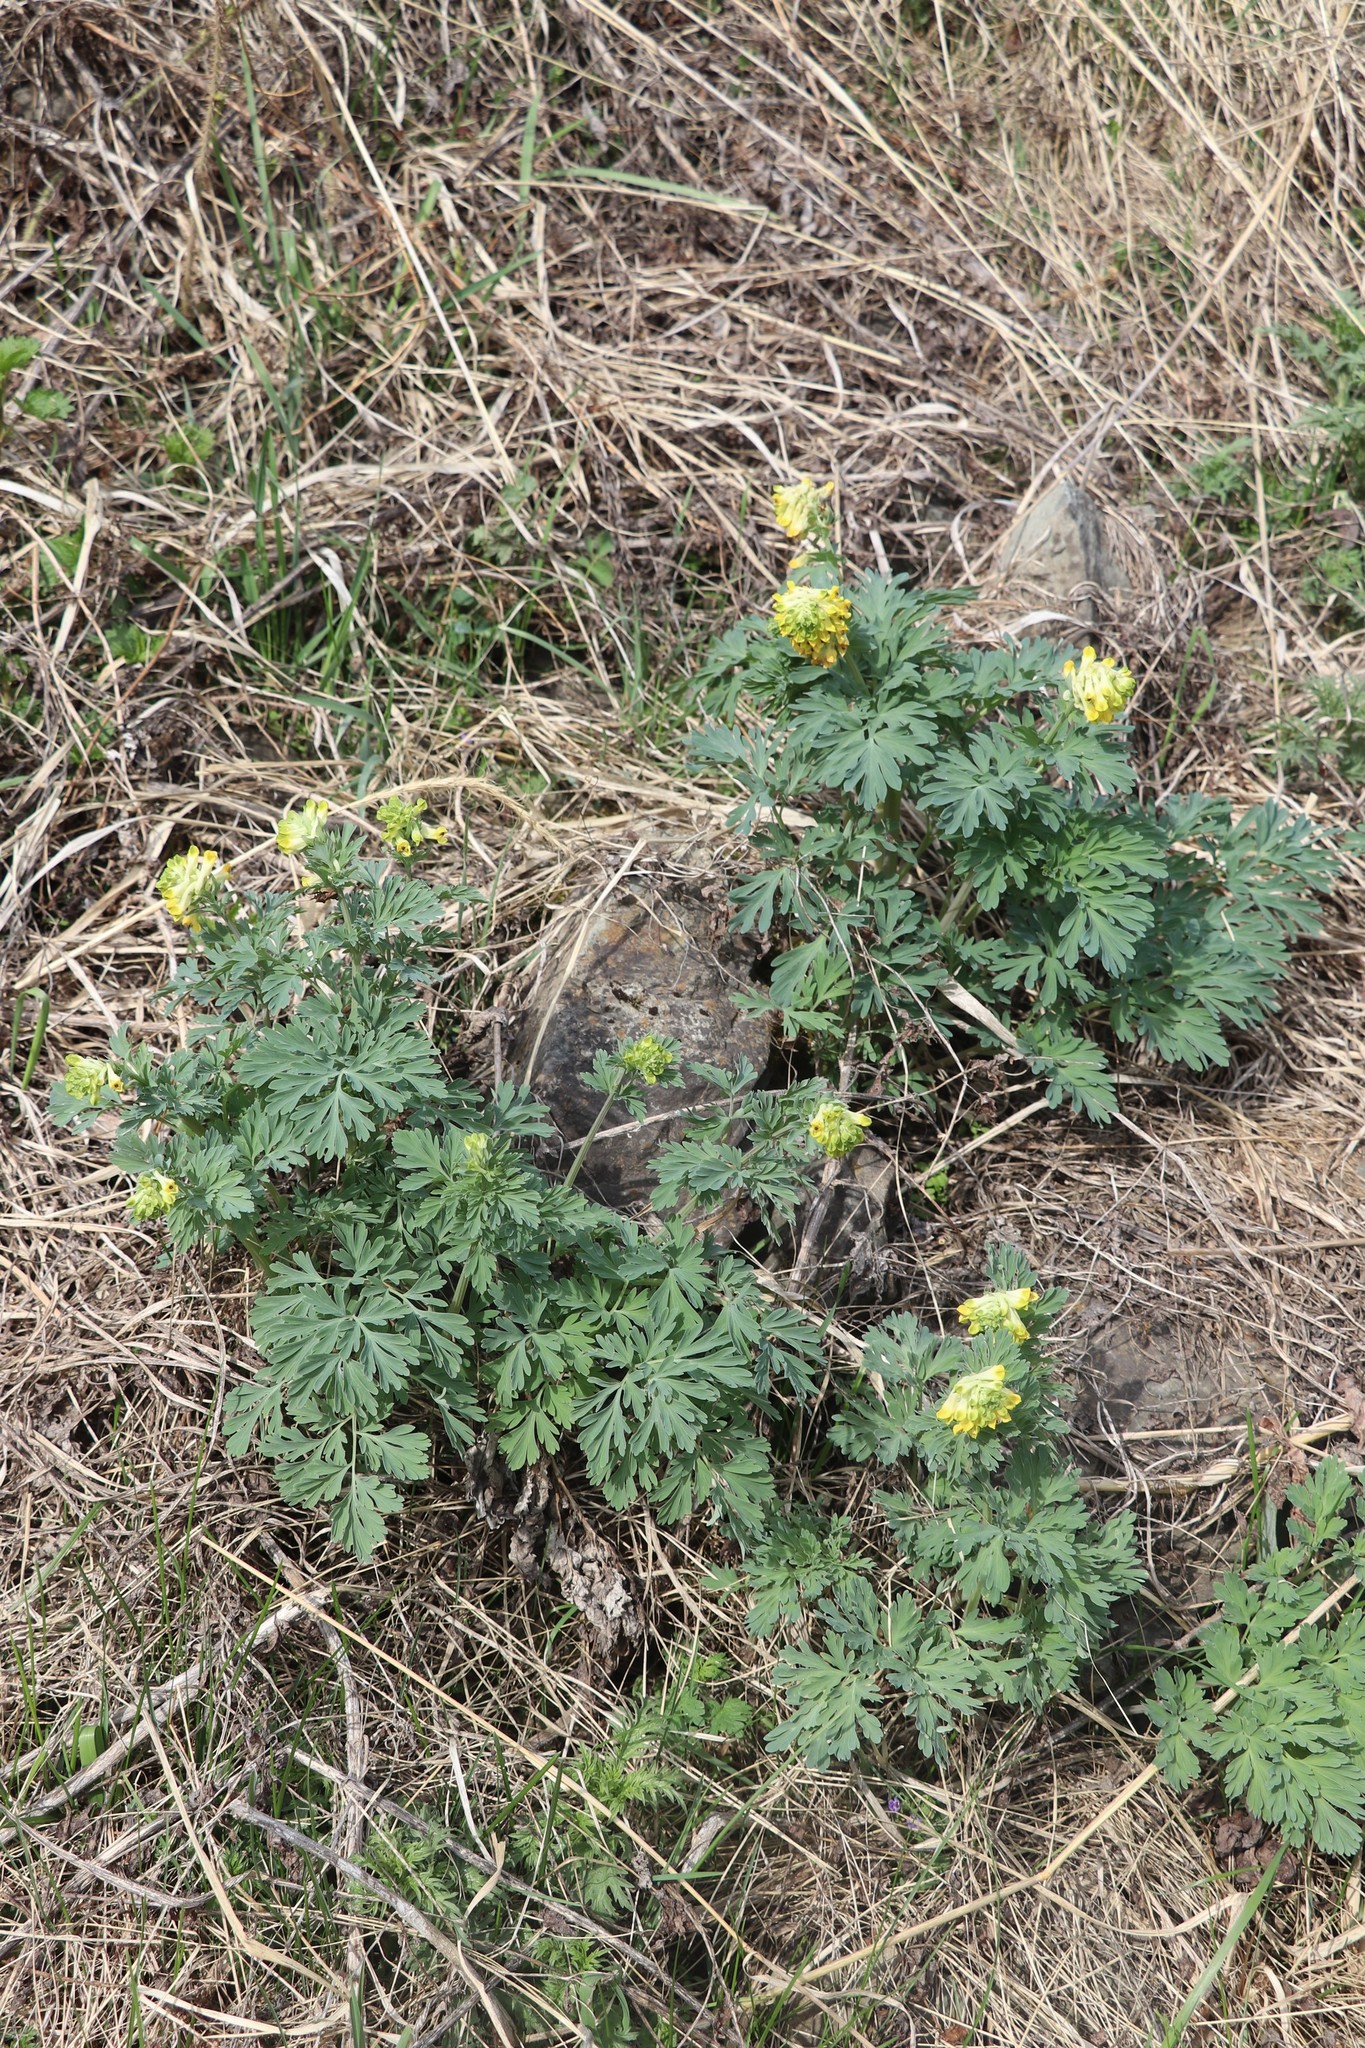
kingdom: Plantae
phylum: Tracheophyta
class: Magnoliopsida
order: Ranunculales
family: Papaveraceae
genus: Corydalis
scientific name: Corydalis nobilis
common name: Siberian corydalis
